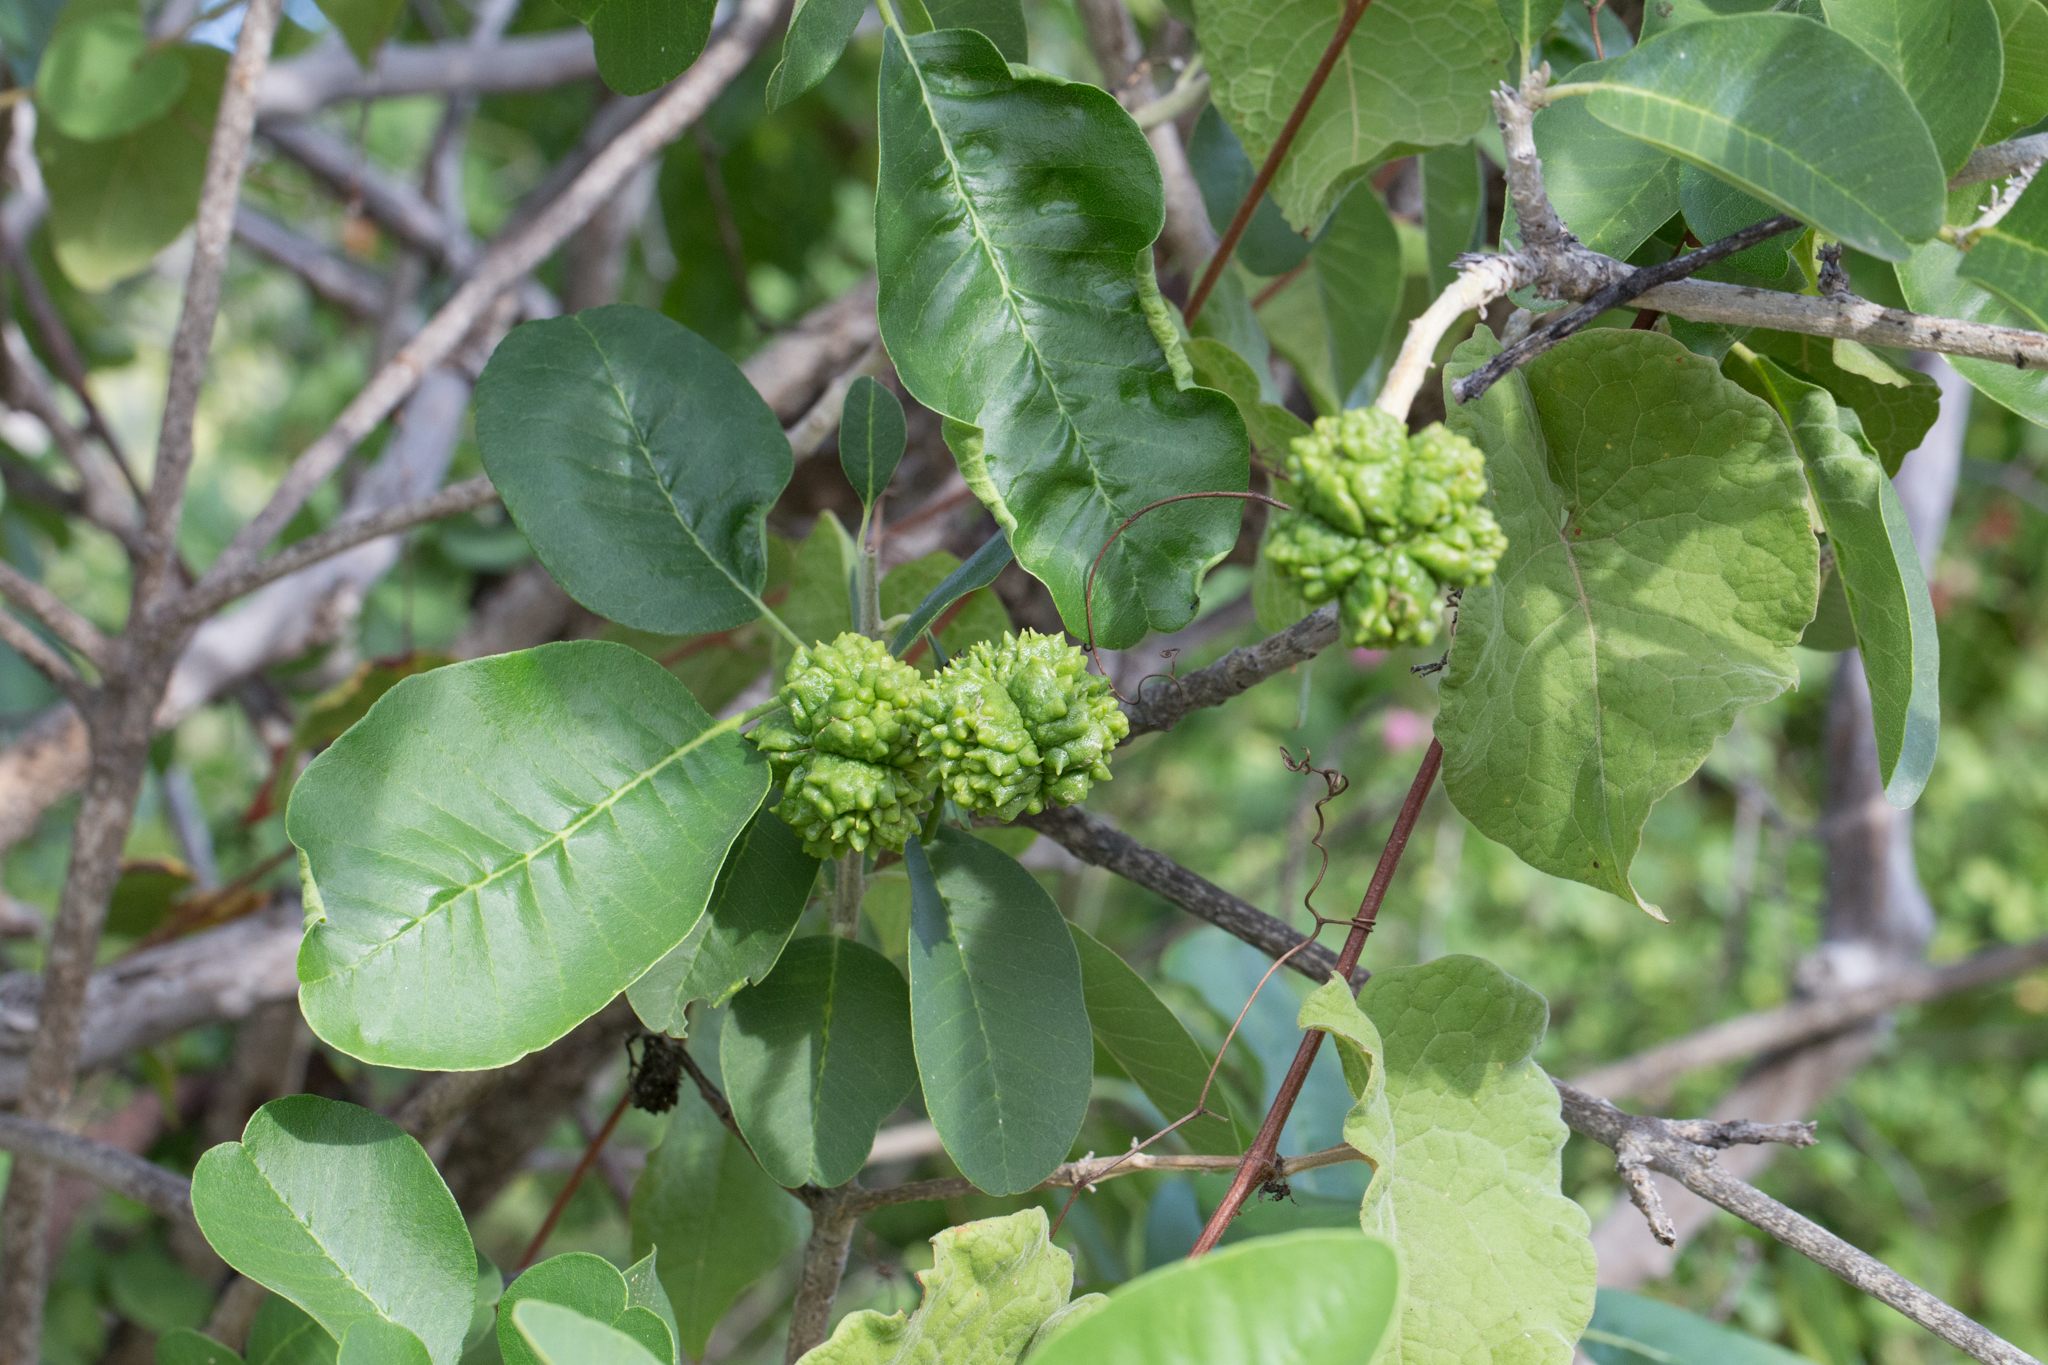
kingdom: Plantae
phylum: Tracheophyta
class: Magnoliopsida
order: Sapindales
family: Rutaceae
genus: Esenbeckia
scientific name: Esenbeckia flava
